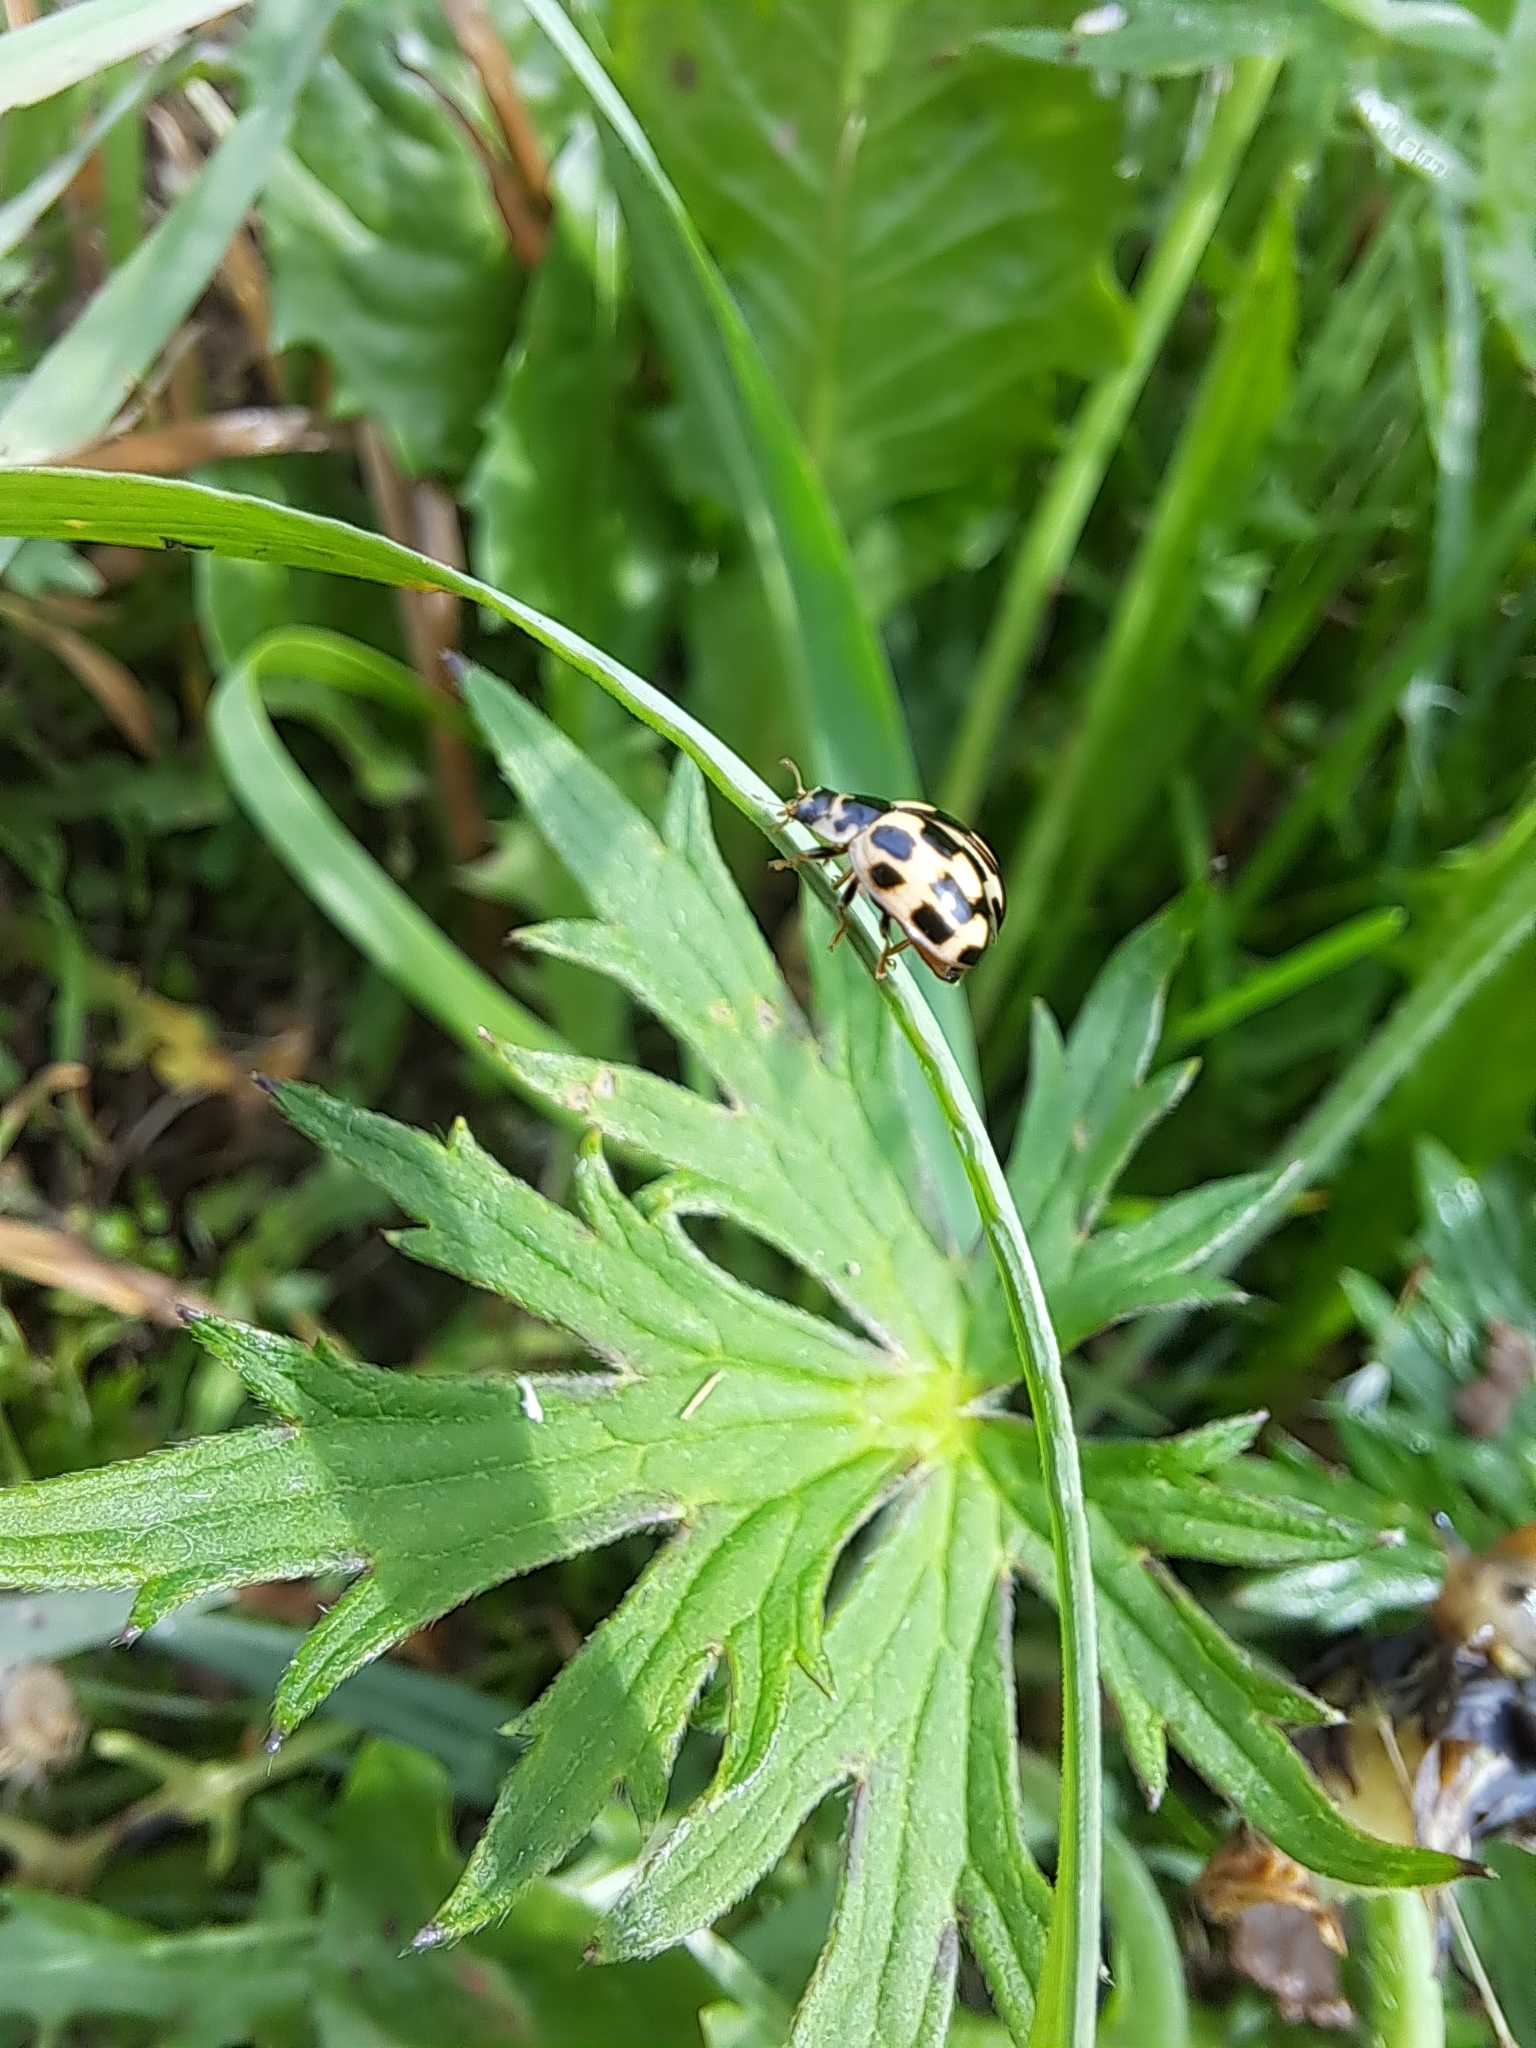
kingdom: Animalia
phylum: Arthropoda
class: Insecta
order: Coleoptera
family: Coccinellidae
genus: Propylaea
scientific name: Propylaea quatuordecimpunctata
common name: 14-spotted ladybird beetle
